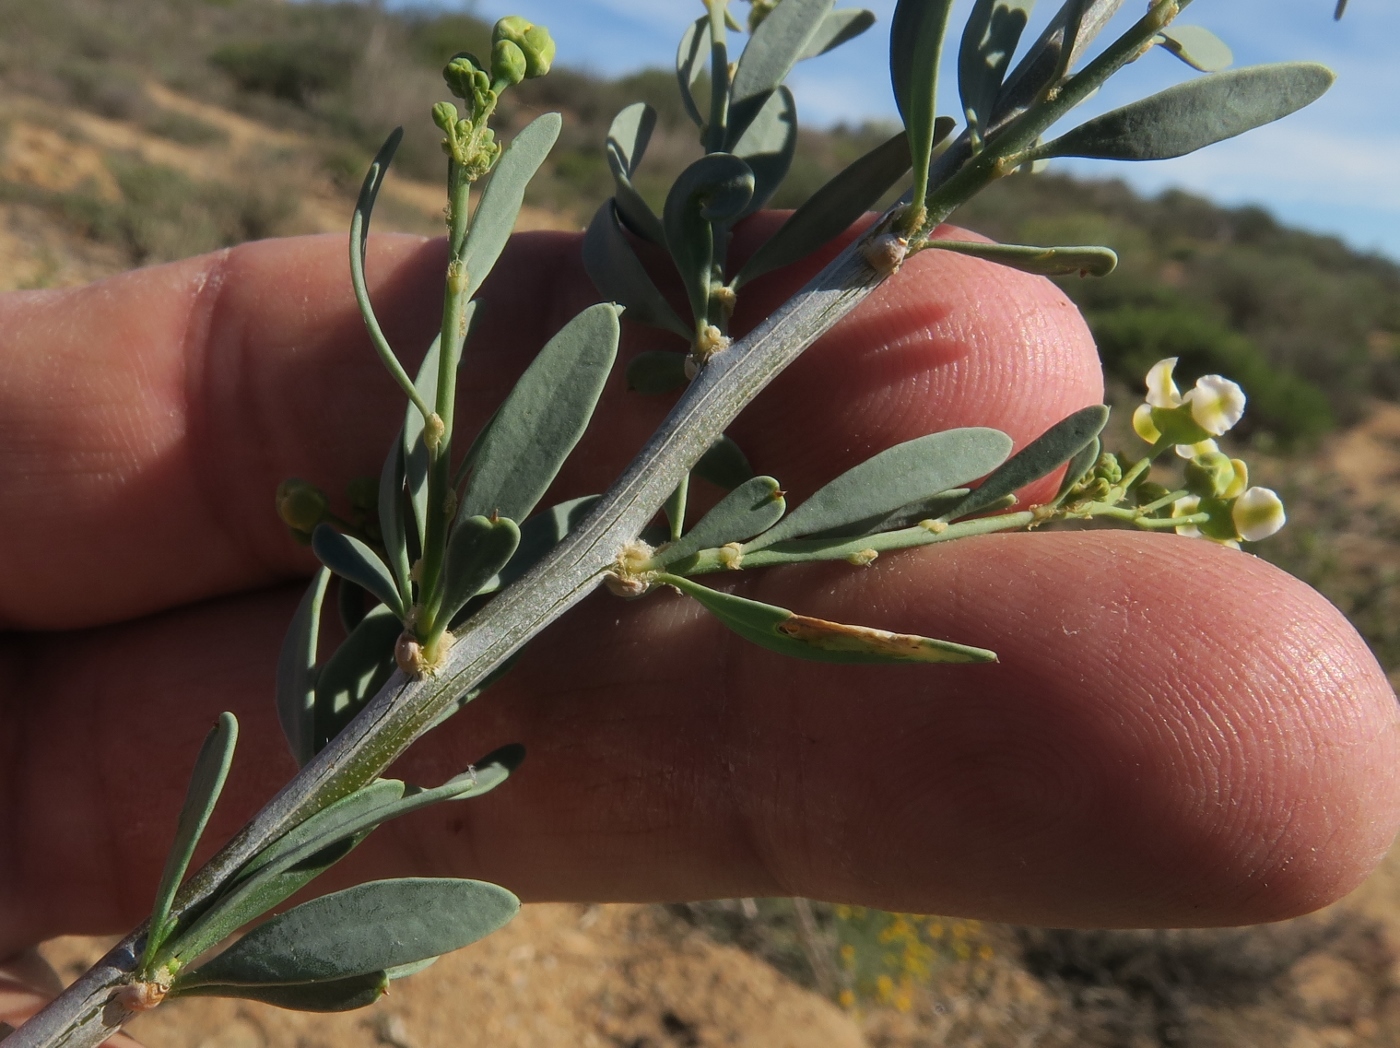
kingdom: Plantae
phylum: Tracheophyta
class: Magnoliopsida
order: Solanales
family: Montiniaceae
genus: Montinia
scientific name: Montinia caryophyllacea
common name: Wild clove-bush
